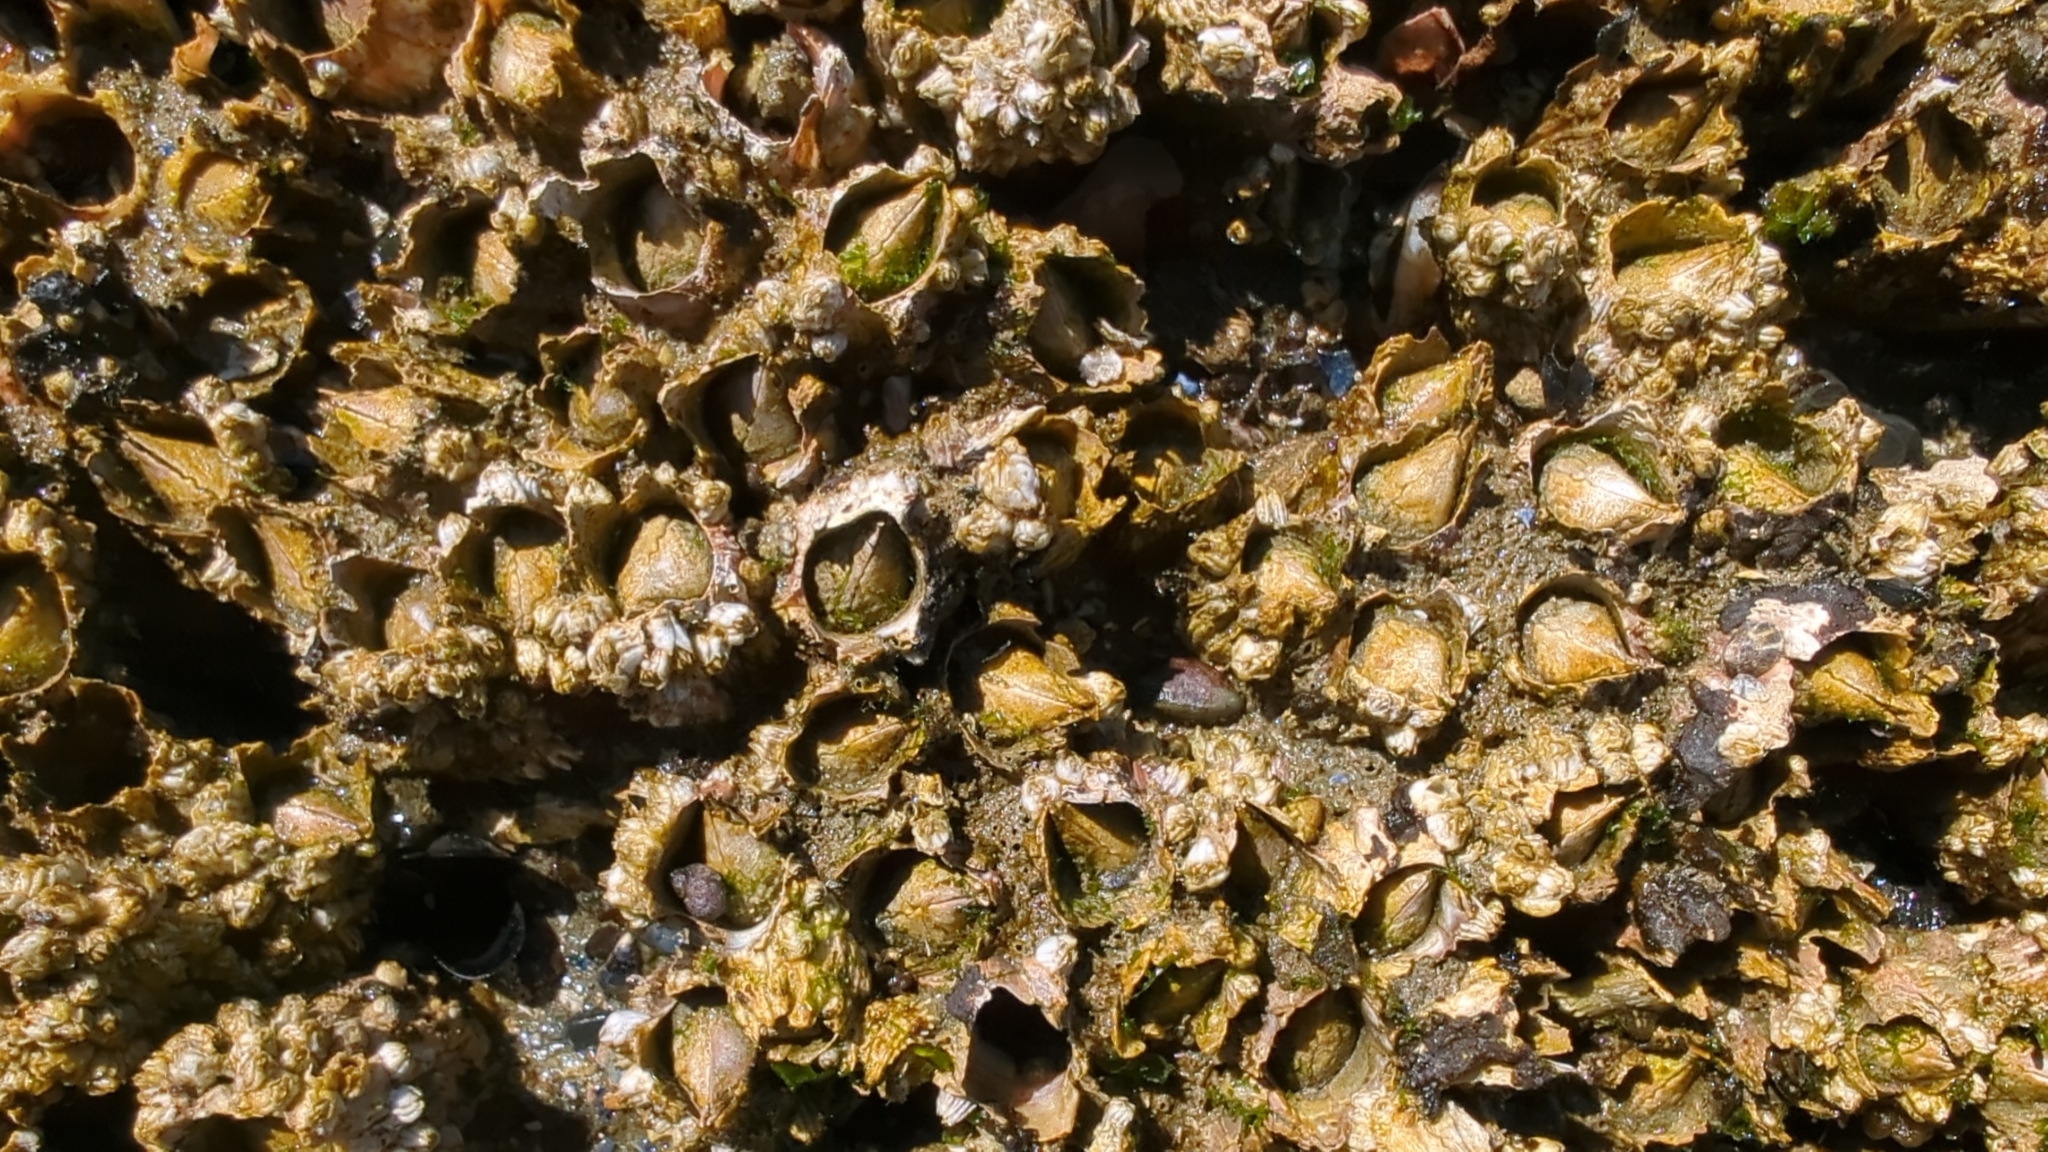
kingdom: Animalia
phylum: Arthropoda
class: Maxillopoda
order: Sessilia
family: Archaeobalanidae
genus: Semibalanus
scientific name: Semibalanus cariosus
